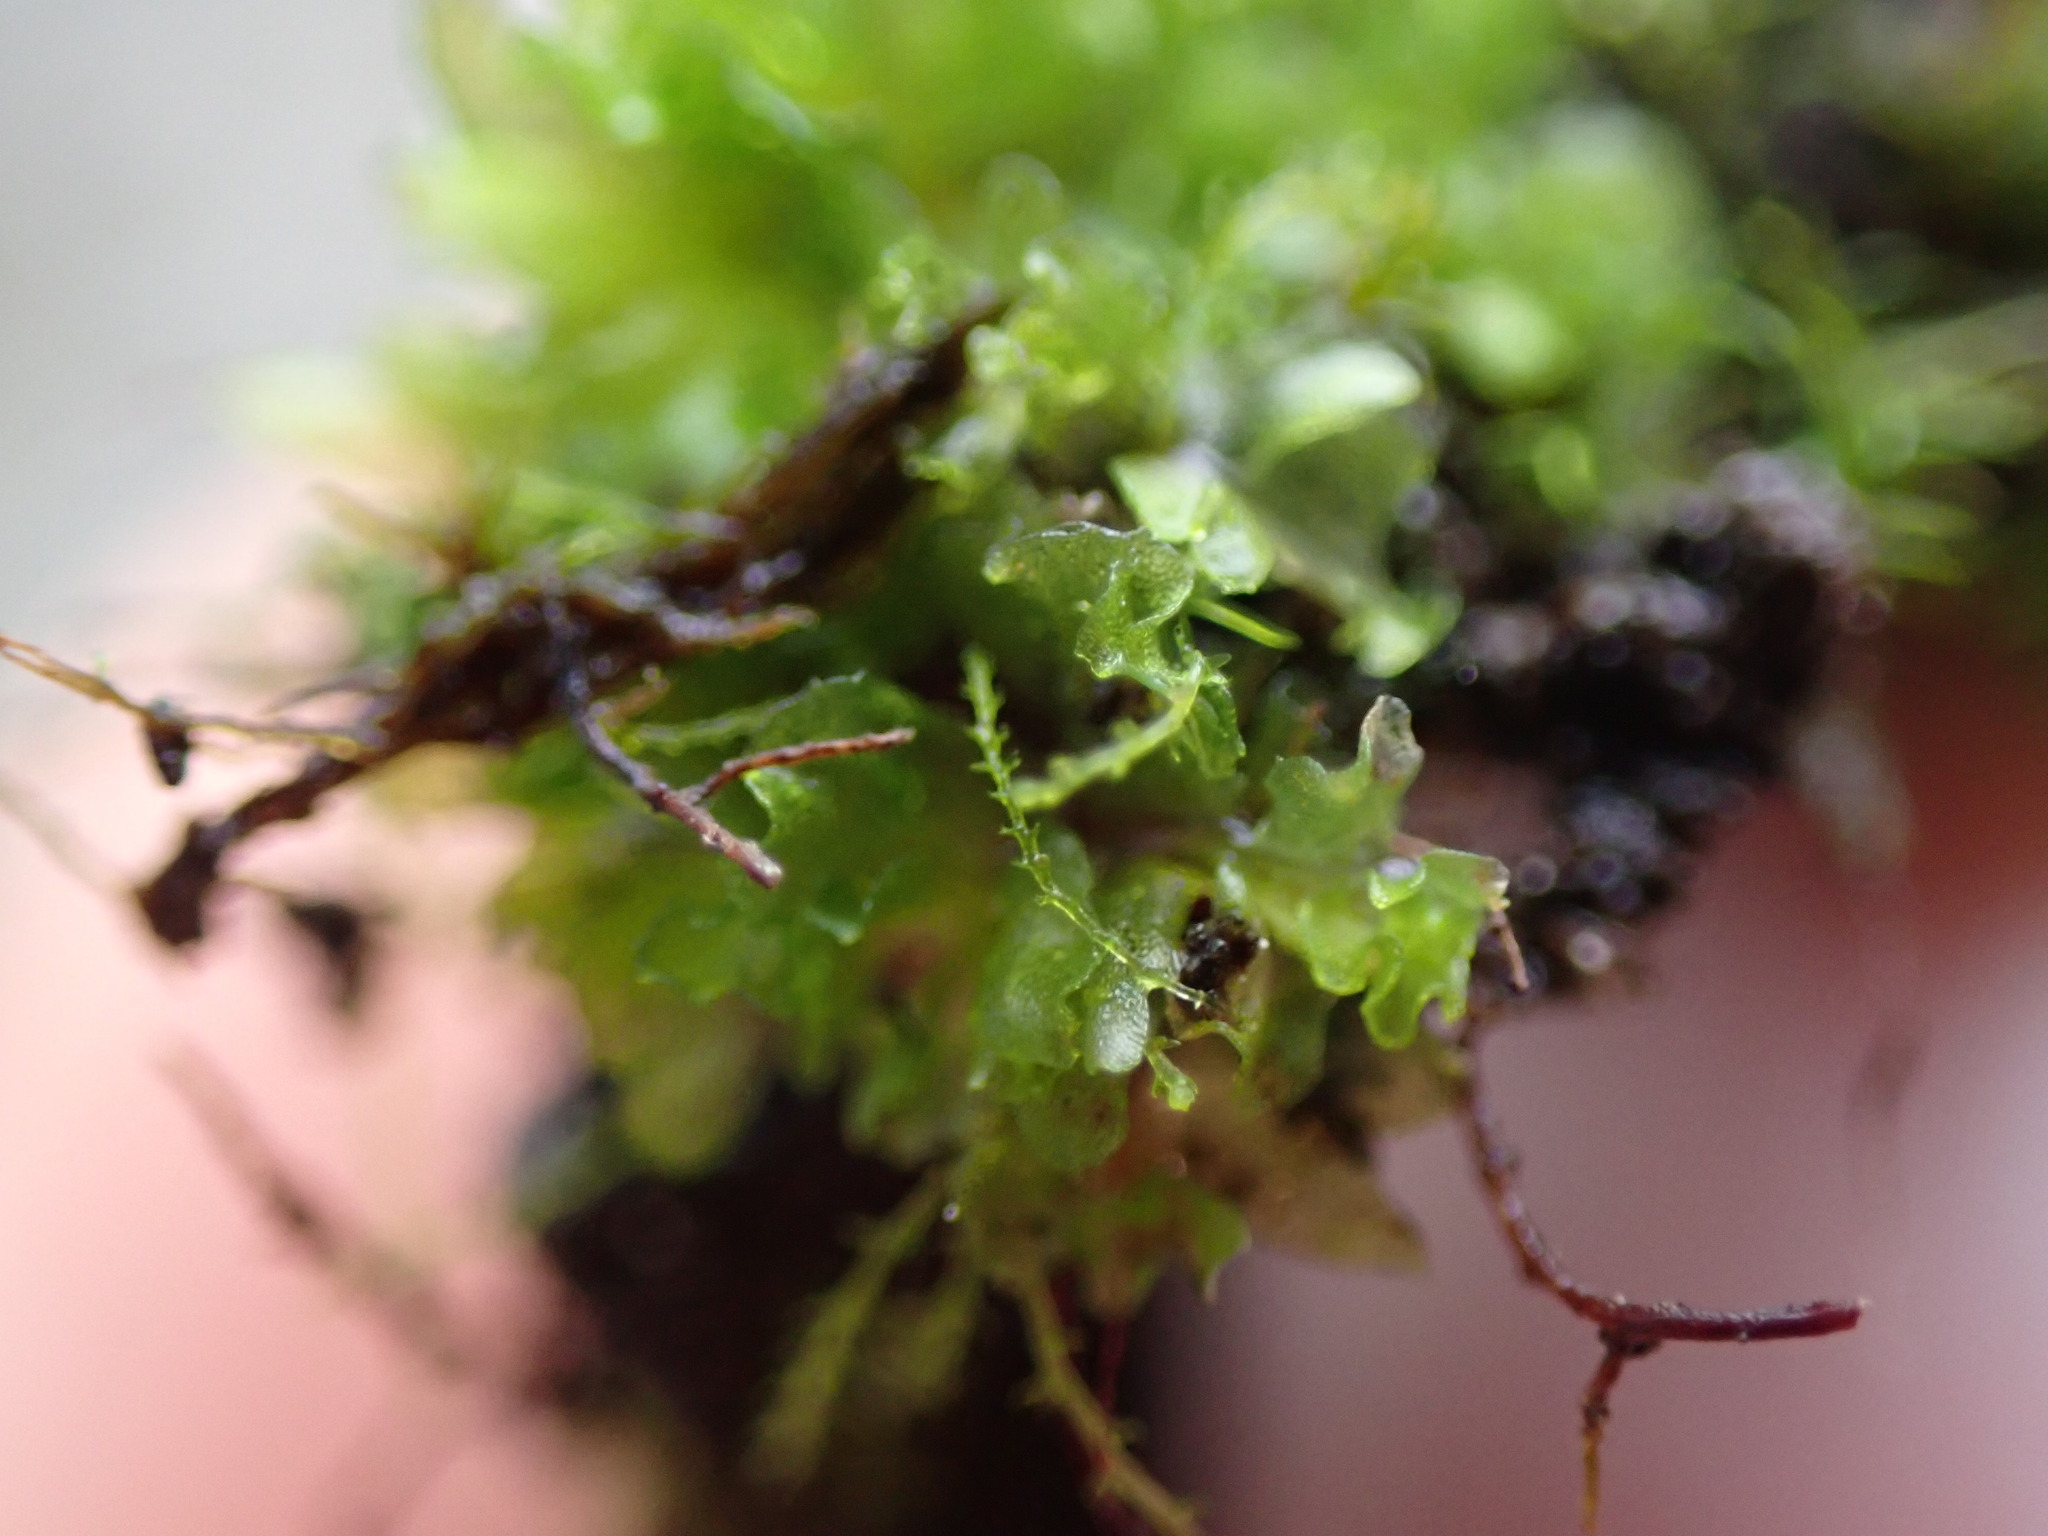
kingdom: Plantae
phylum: Marchantiophyta
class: Jungermanniopsida
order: Jungermanniales
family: Cephaloziellaceae
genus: Cephaloziella
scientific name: Cephaloziella divaricata
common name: Spreading threadwort
